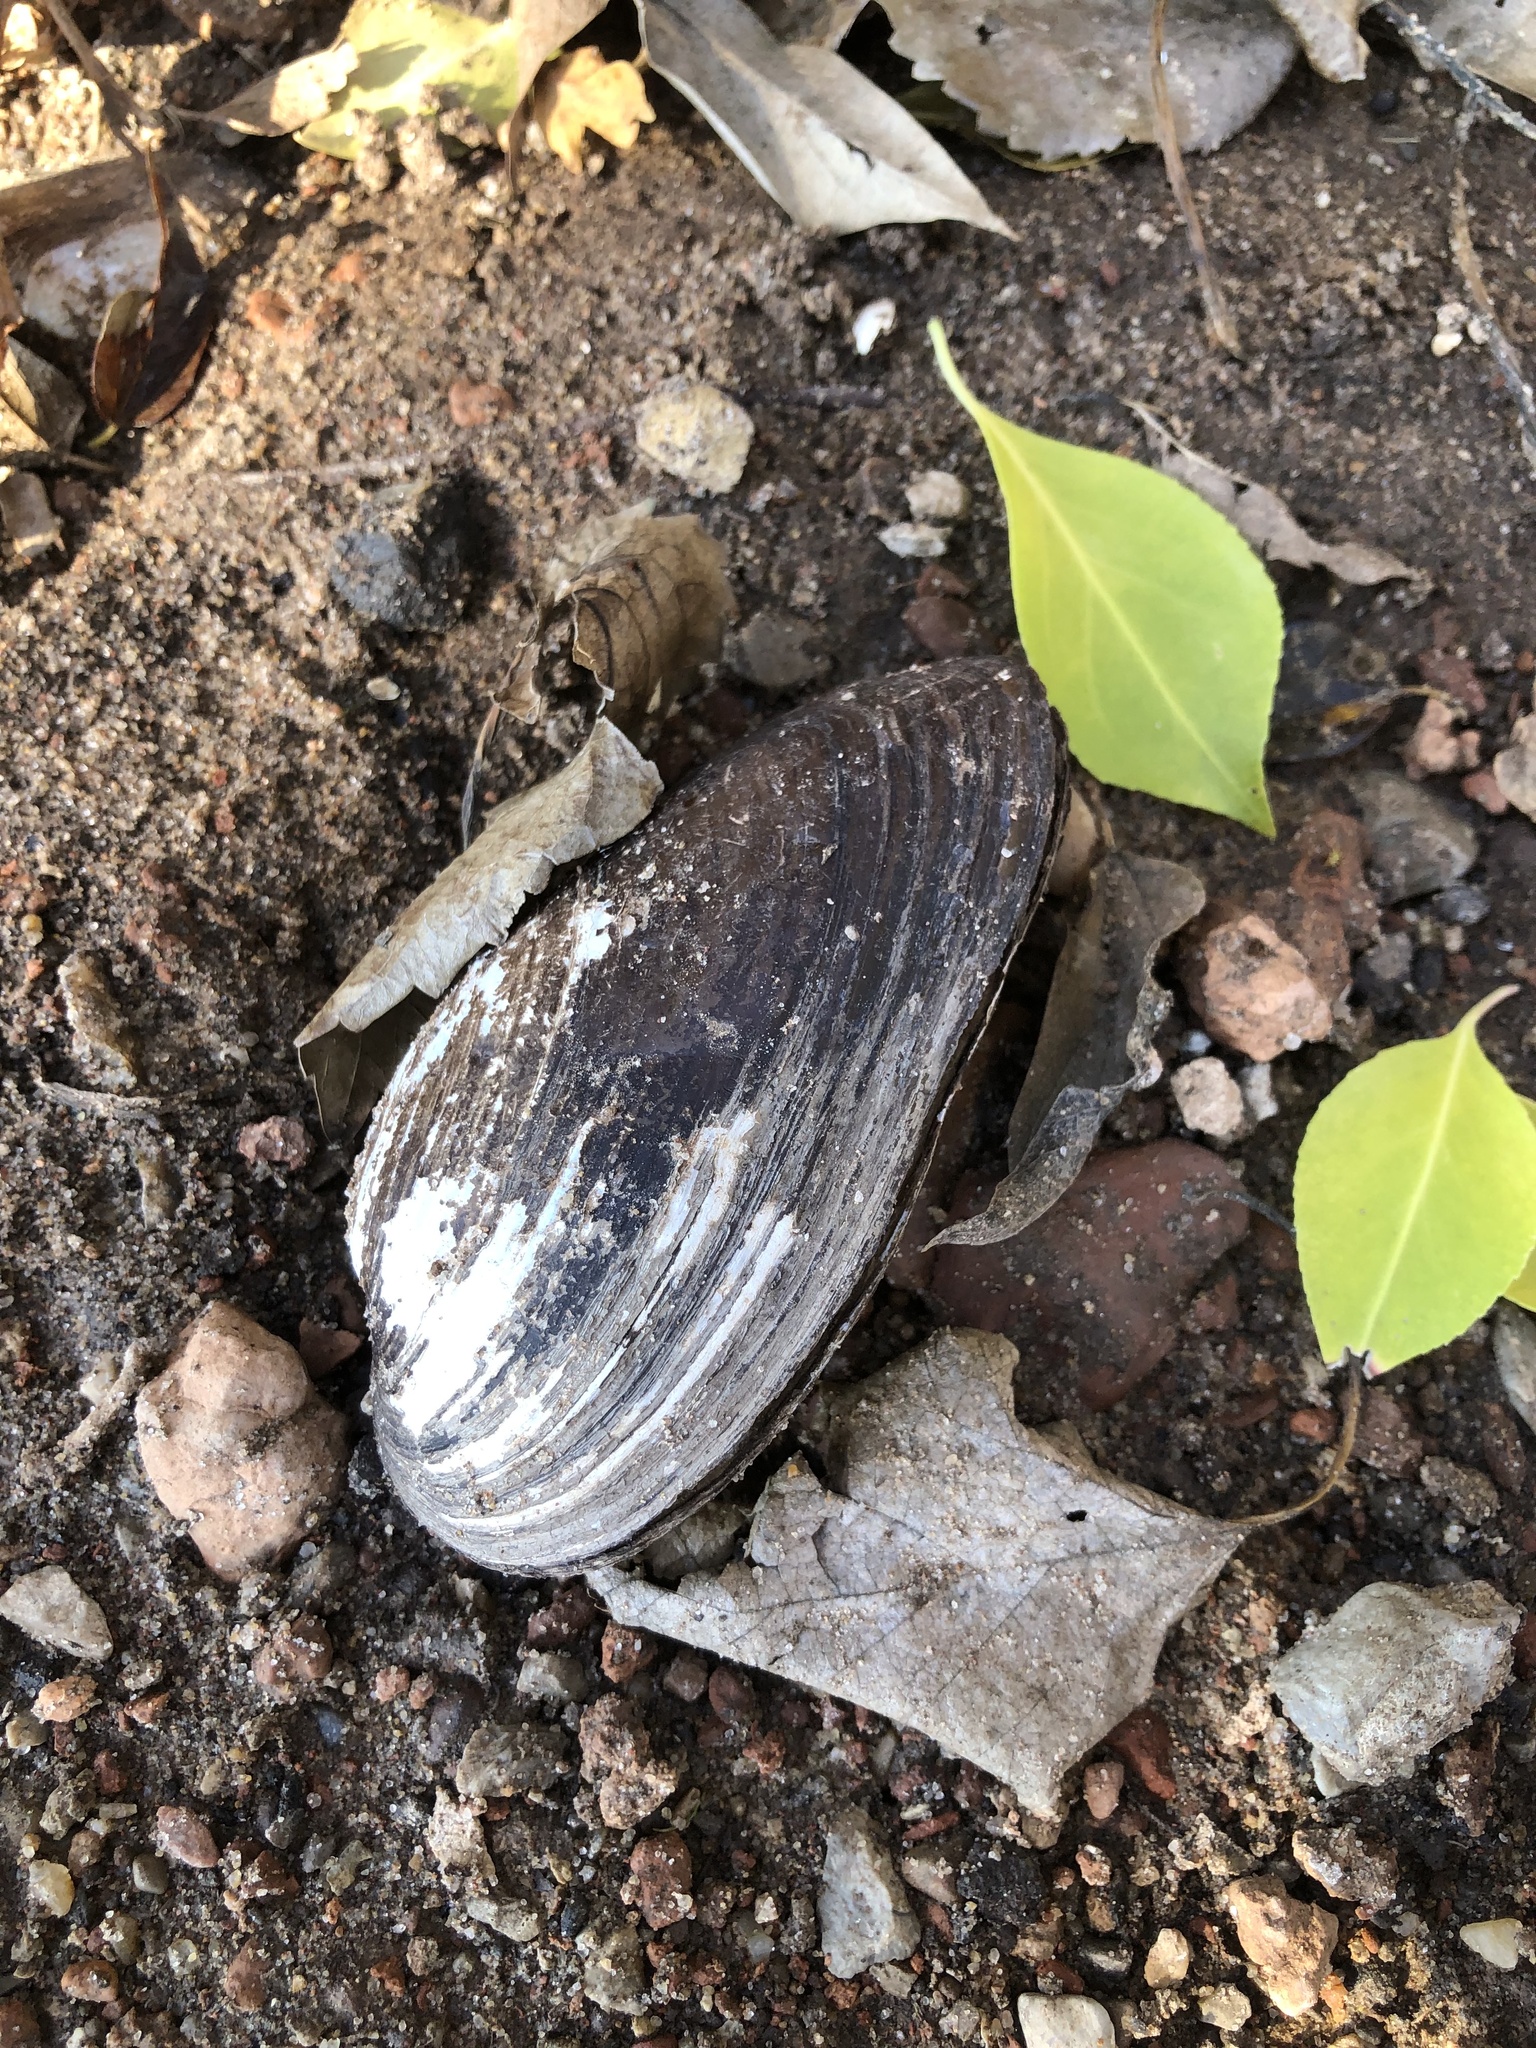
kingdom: Animalia
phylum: Mollusca
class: Bivalvia
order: Unionida
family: Unionidae
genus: Uniomerus
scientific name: Uniomerus tetralasmus
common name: Pondhorn
